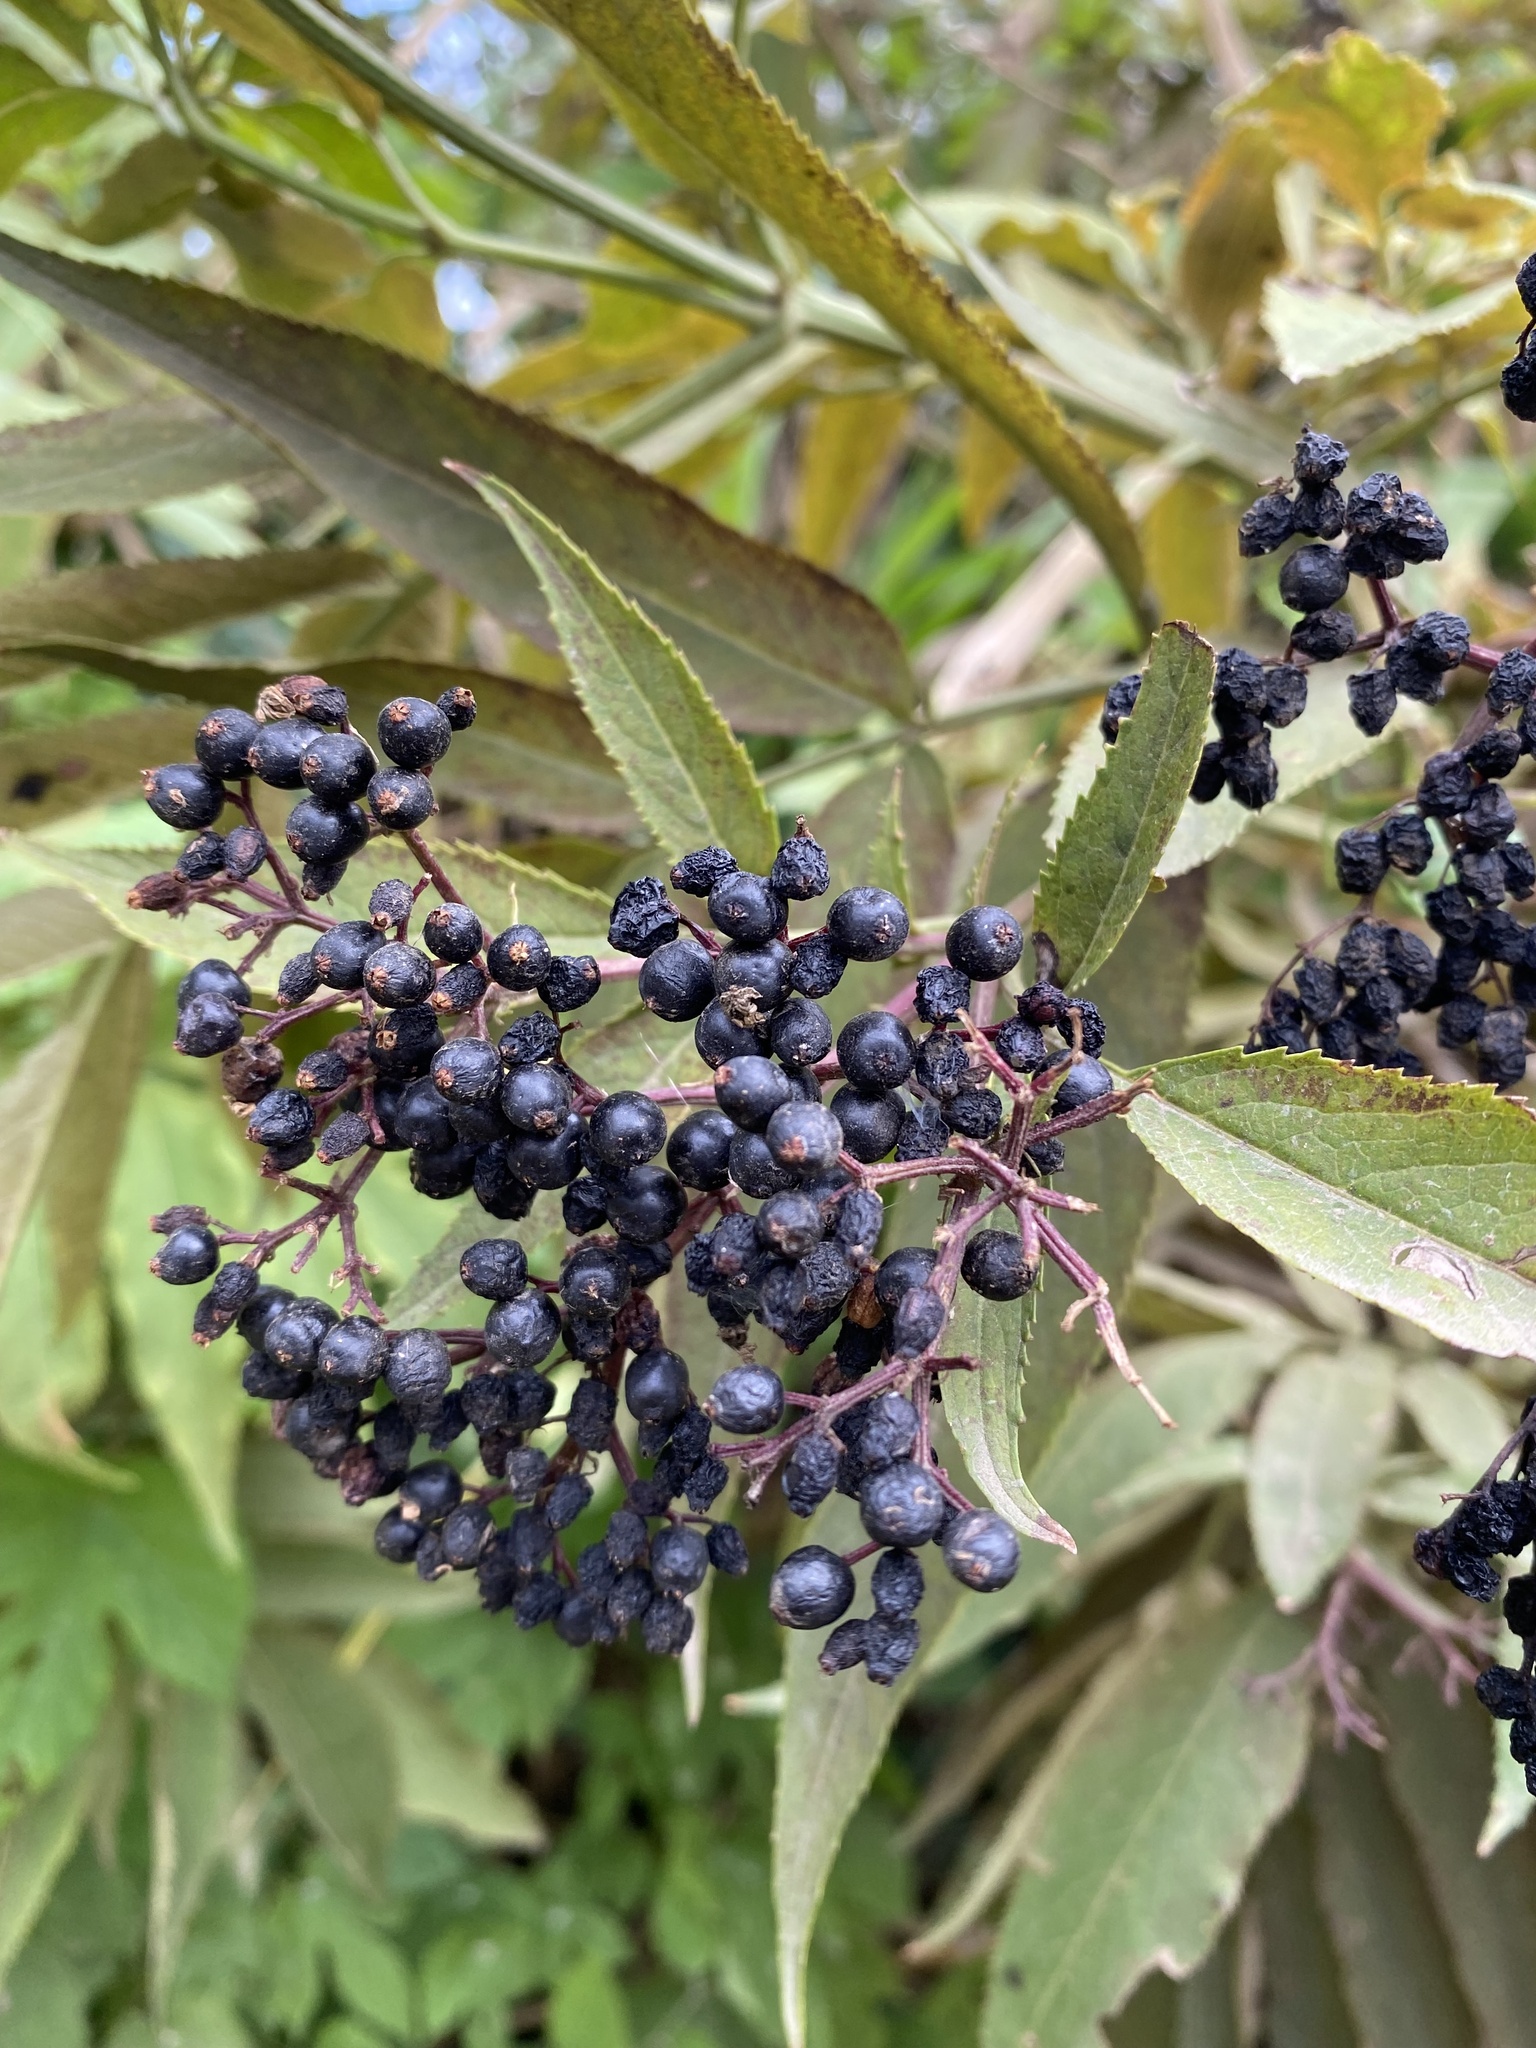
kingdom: Plantae
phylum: Tracheophyta
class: Magnoliopsida
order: Dipsacales
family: Viburnaceae
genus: Sambucus
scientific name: Sambucus nigra
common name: Elder
